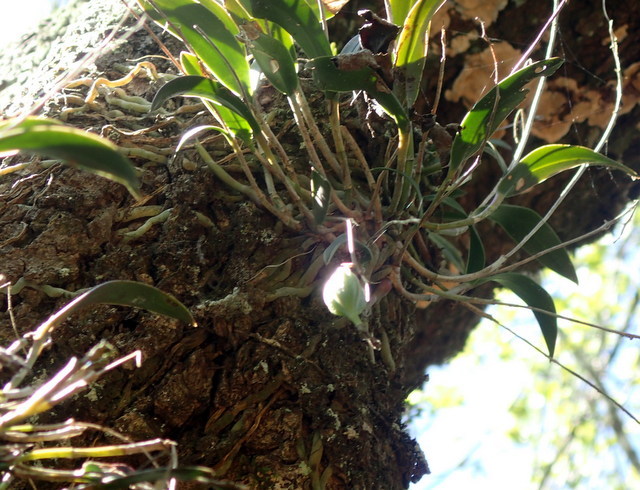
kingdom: Plantae
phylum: Tracheophyta
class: Liliopsida
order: Asparagales
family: Orchidaceae
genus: Epidendrum
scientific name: Epidendrum conopseum
